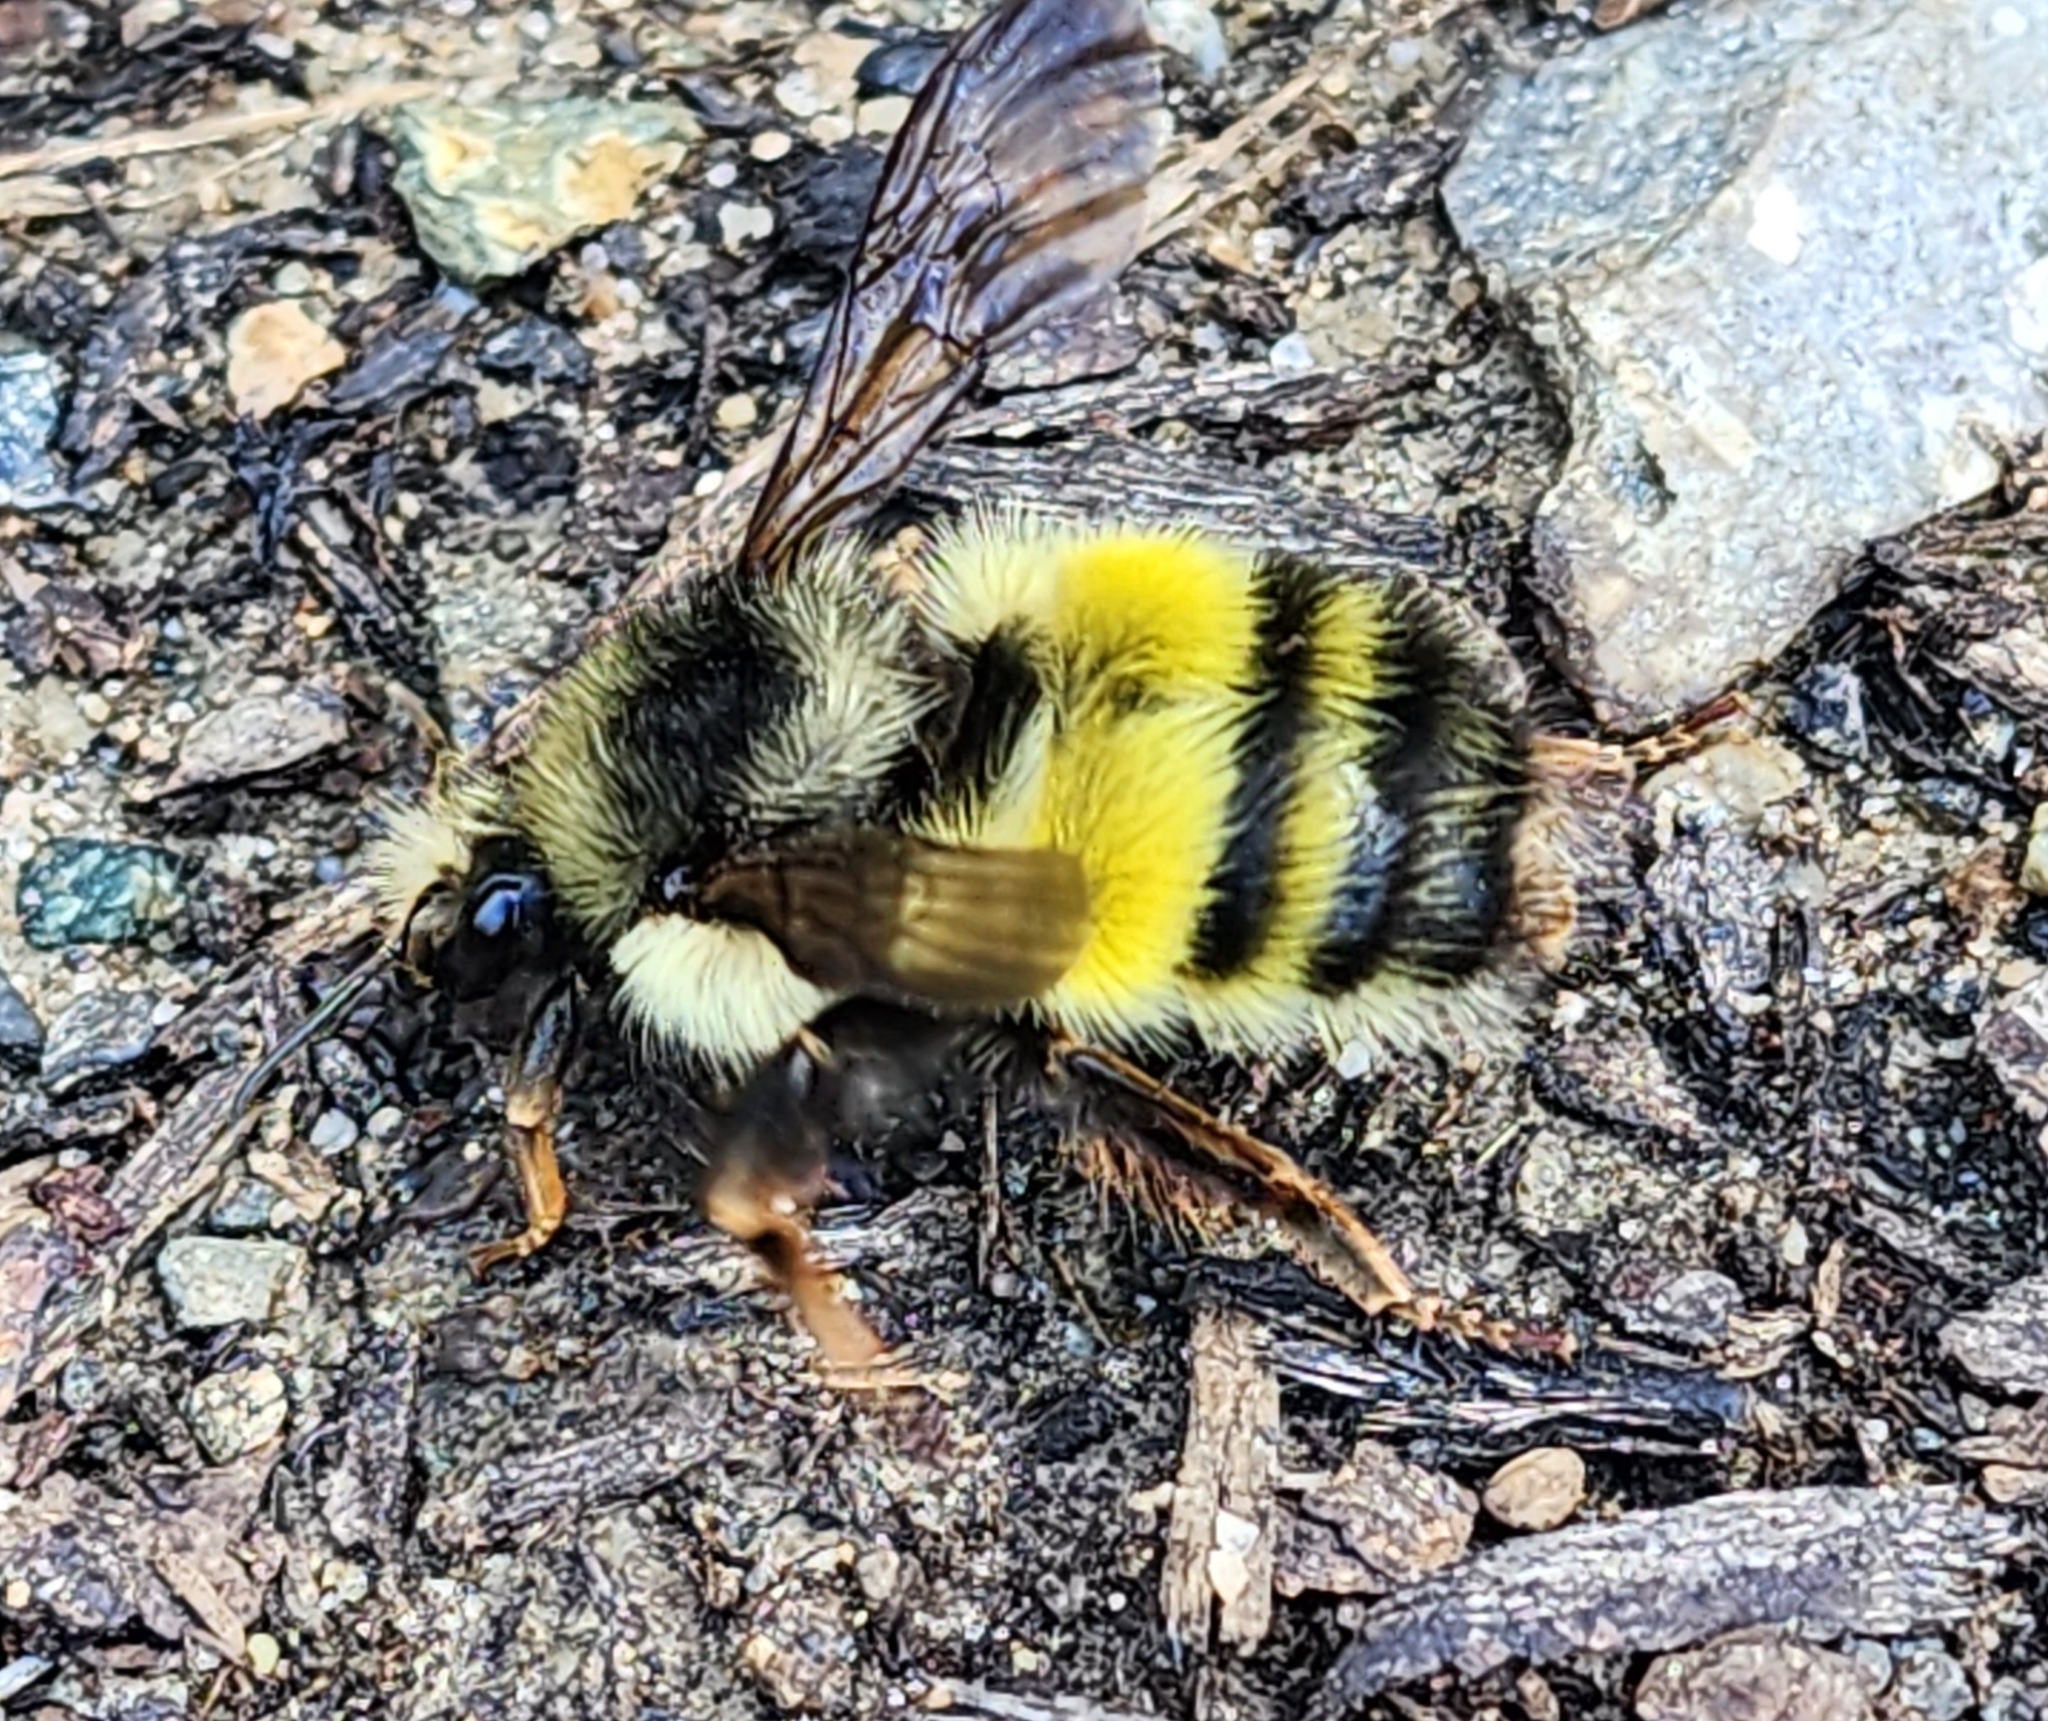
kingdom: Animalia
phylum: Arthropoda
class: Insecta
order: Hymenoptera
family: Apidae
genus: Bombus
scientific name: Bombus flavifrons
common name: Yellow head bumble bee
